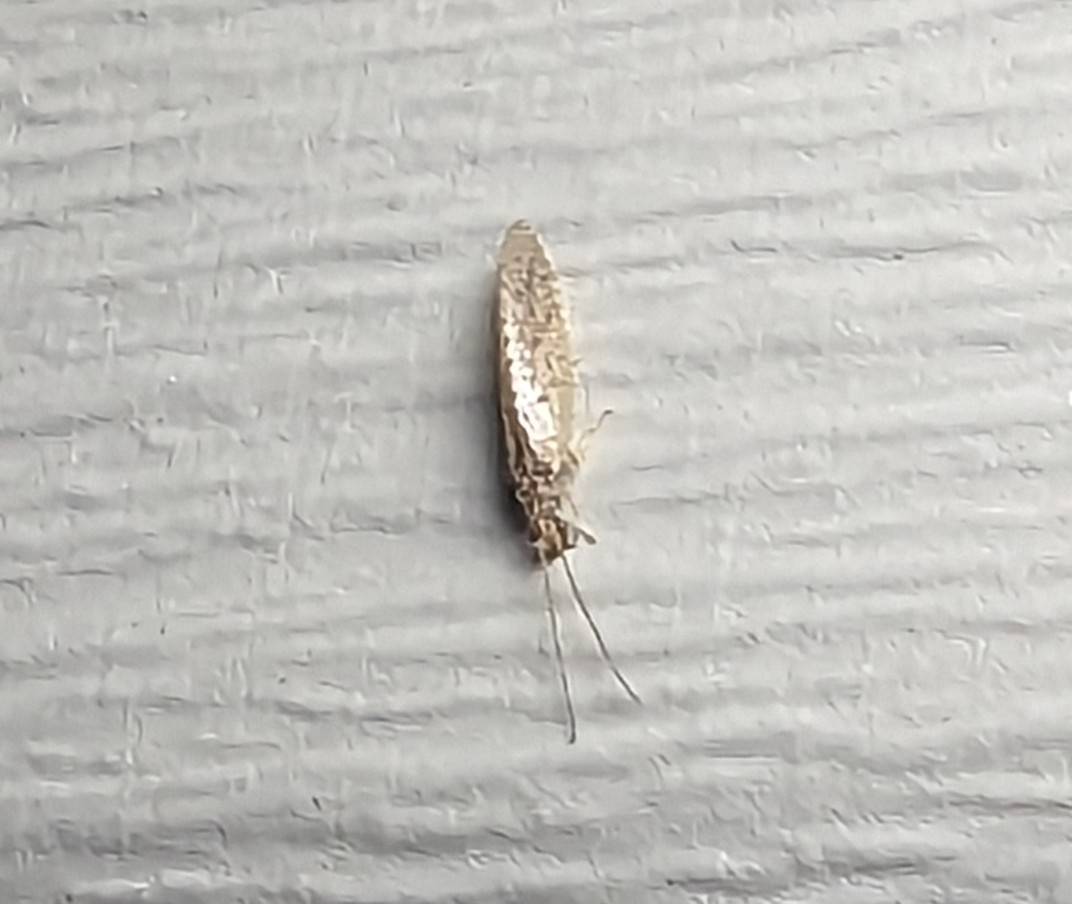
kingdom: Animalia
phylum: Arthropoda
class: Insecta
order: Neuroptera
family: Hemerobiidae
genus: Micromus
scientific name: Micromus subanticus
